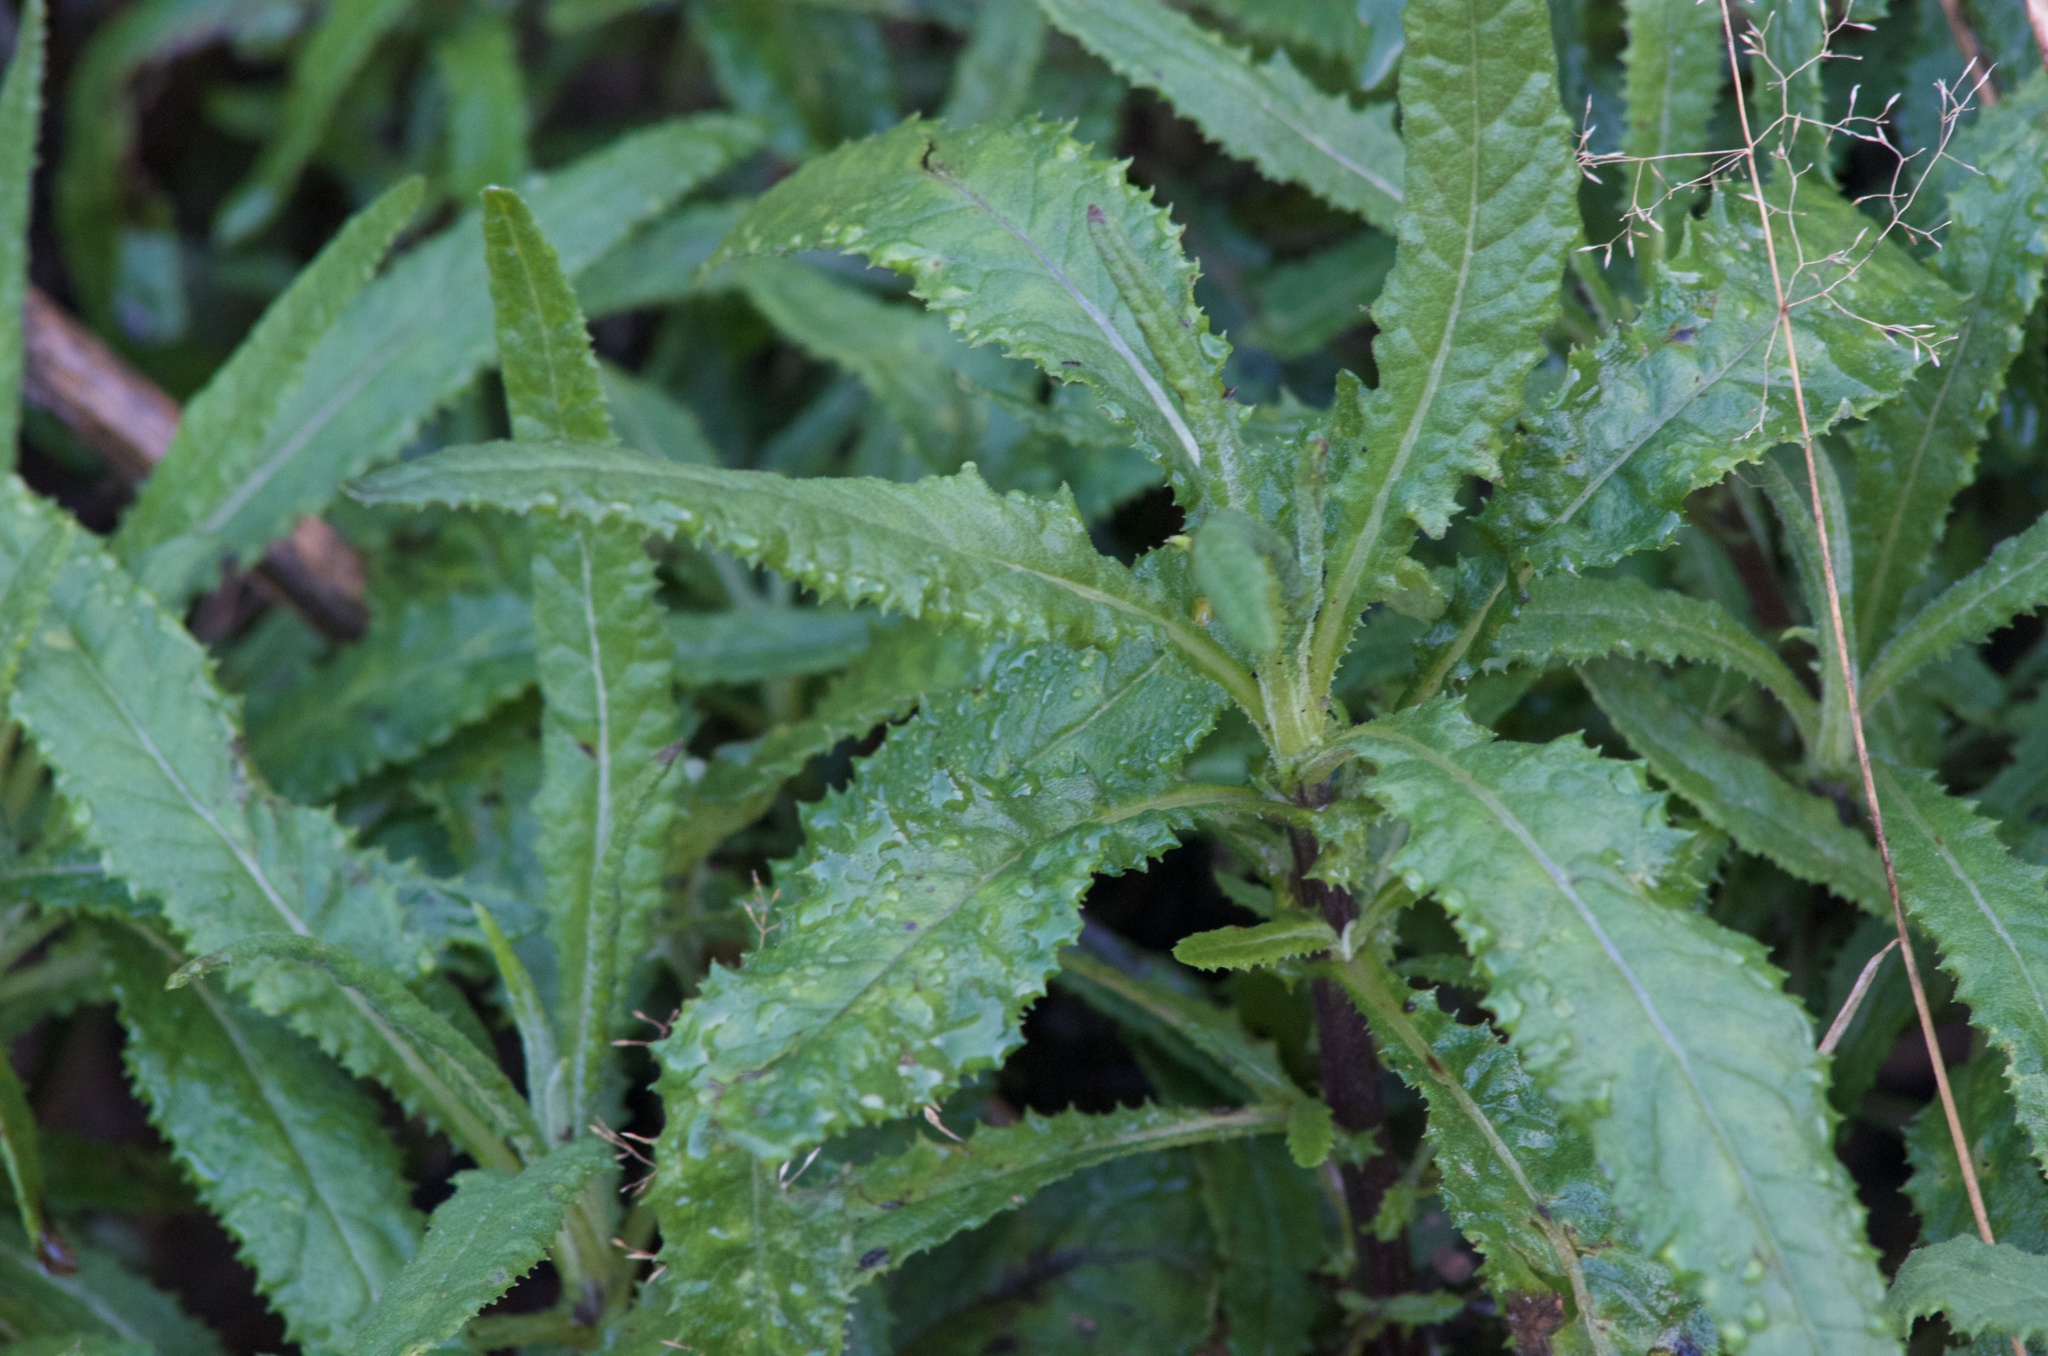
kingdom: Plantae
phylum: Tracheophyta
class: Magnoliopsida
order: Asterales
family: Asteraceae
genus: Senecio
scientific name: Senecio minimus
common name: Toothed fireweed
